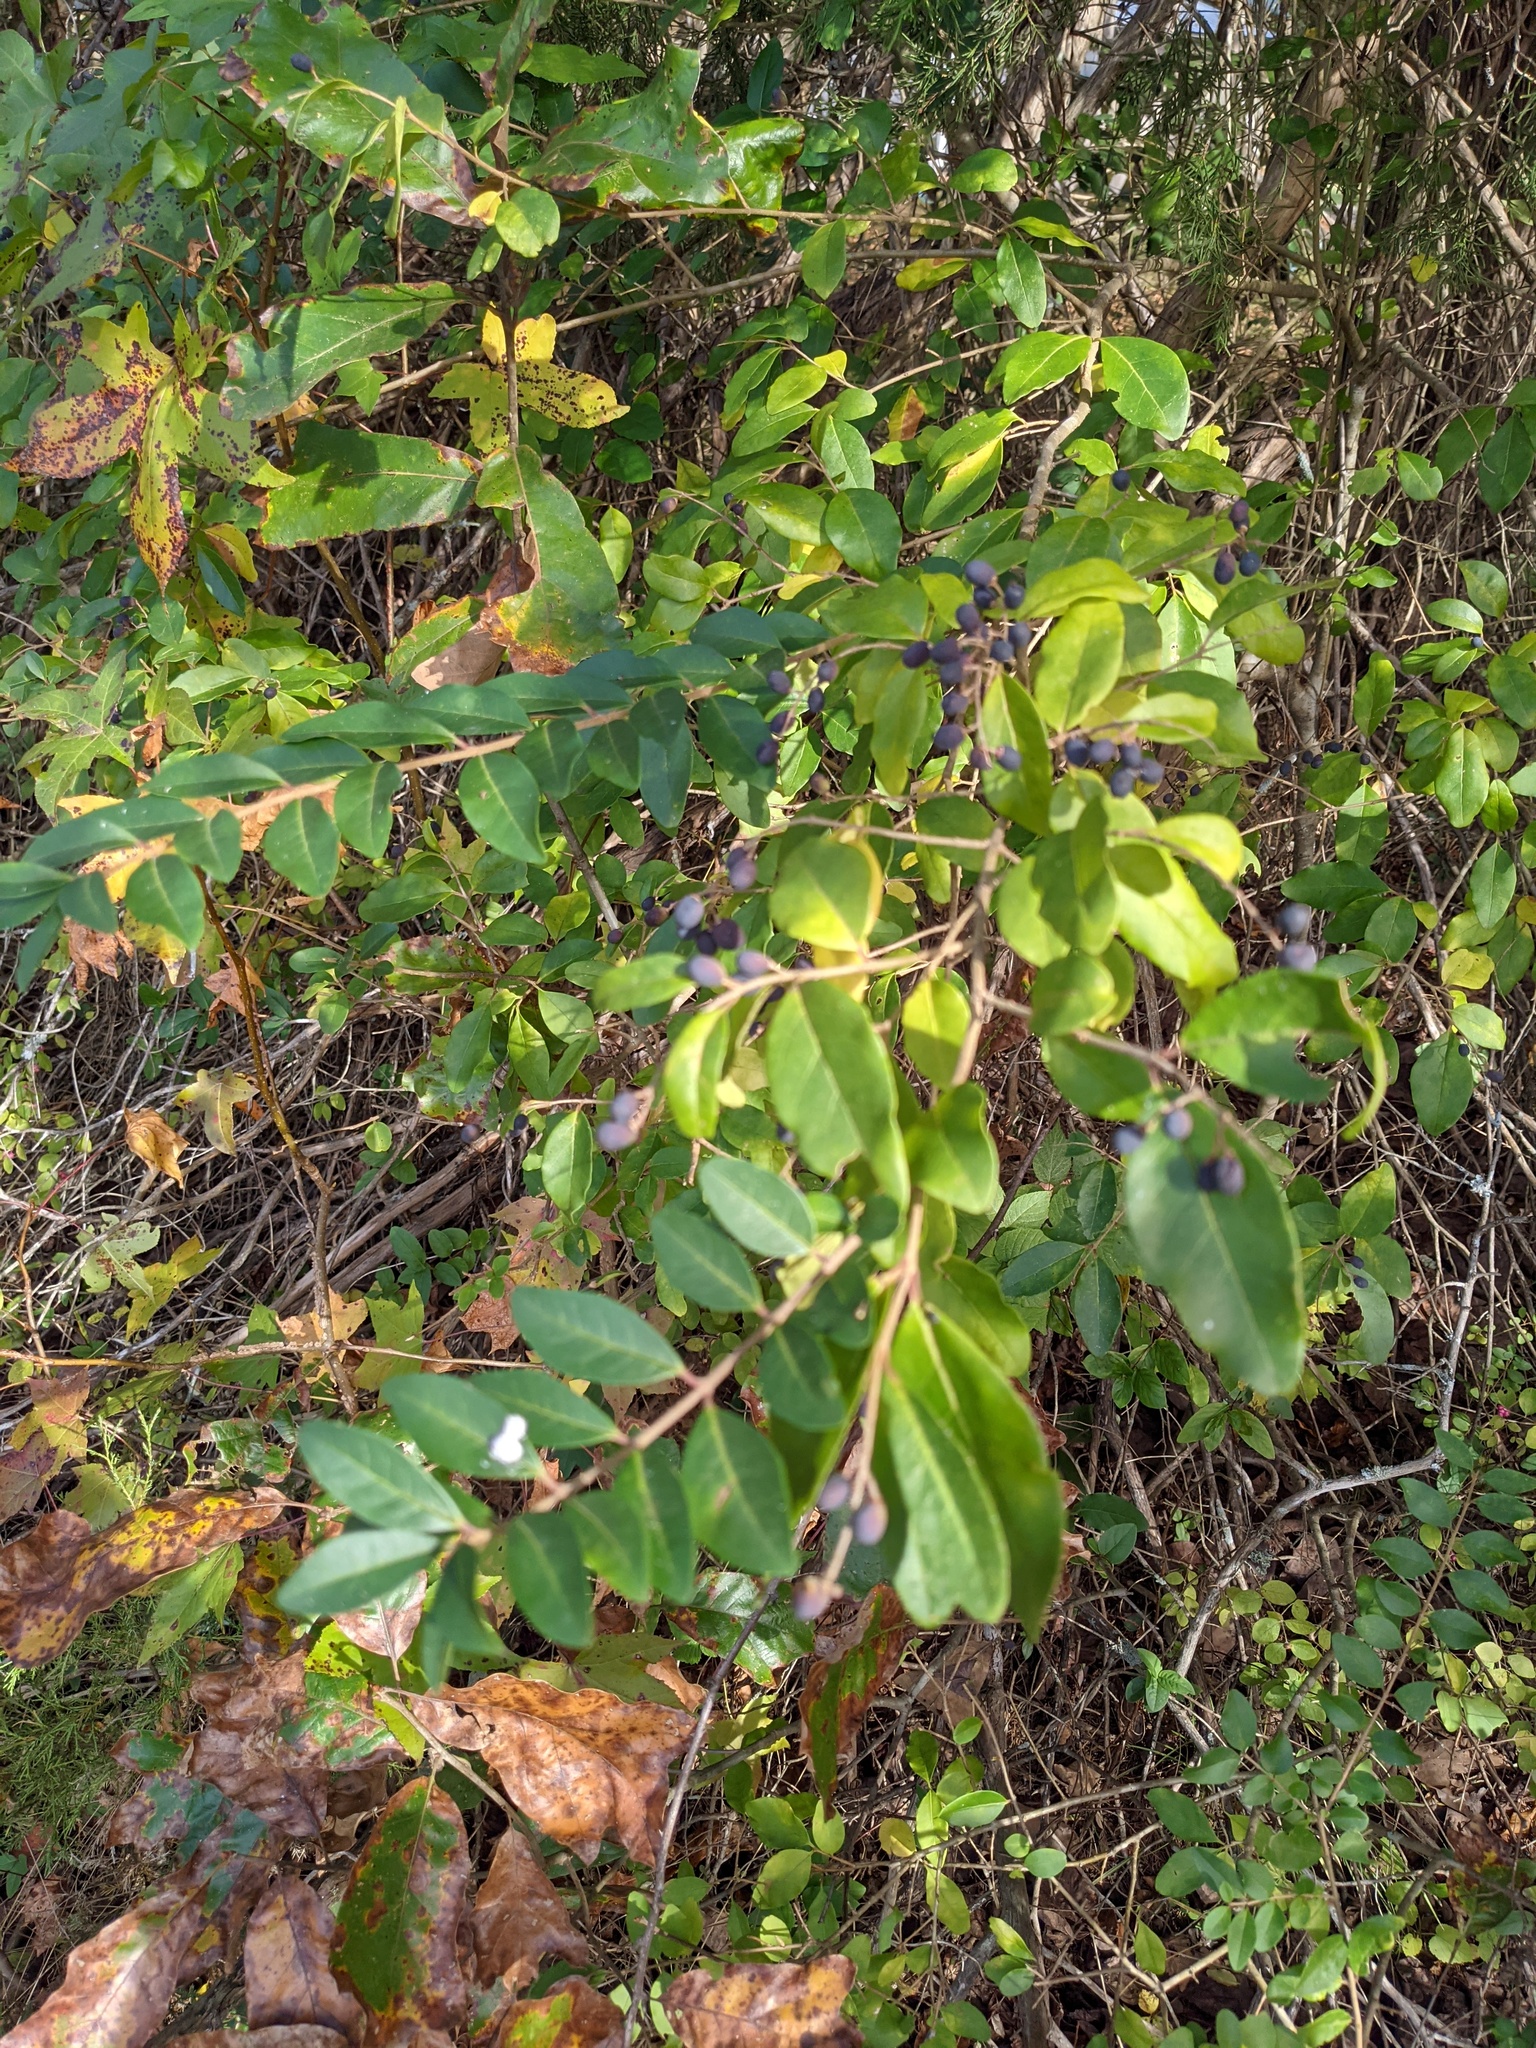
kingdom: Plantae
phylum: Tracheophyta
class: Magnoliopsida
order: Lamiales
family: Oleaceae
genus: Ligustrum
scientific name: Ligustrum sinense
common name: Chinese privet
